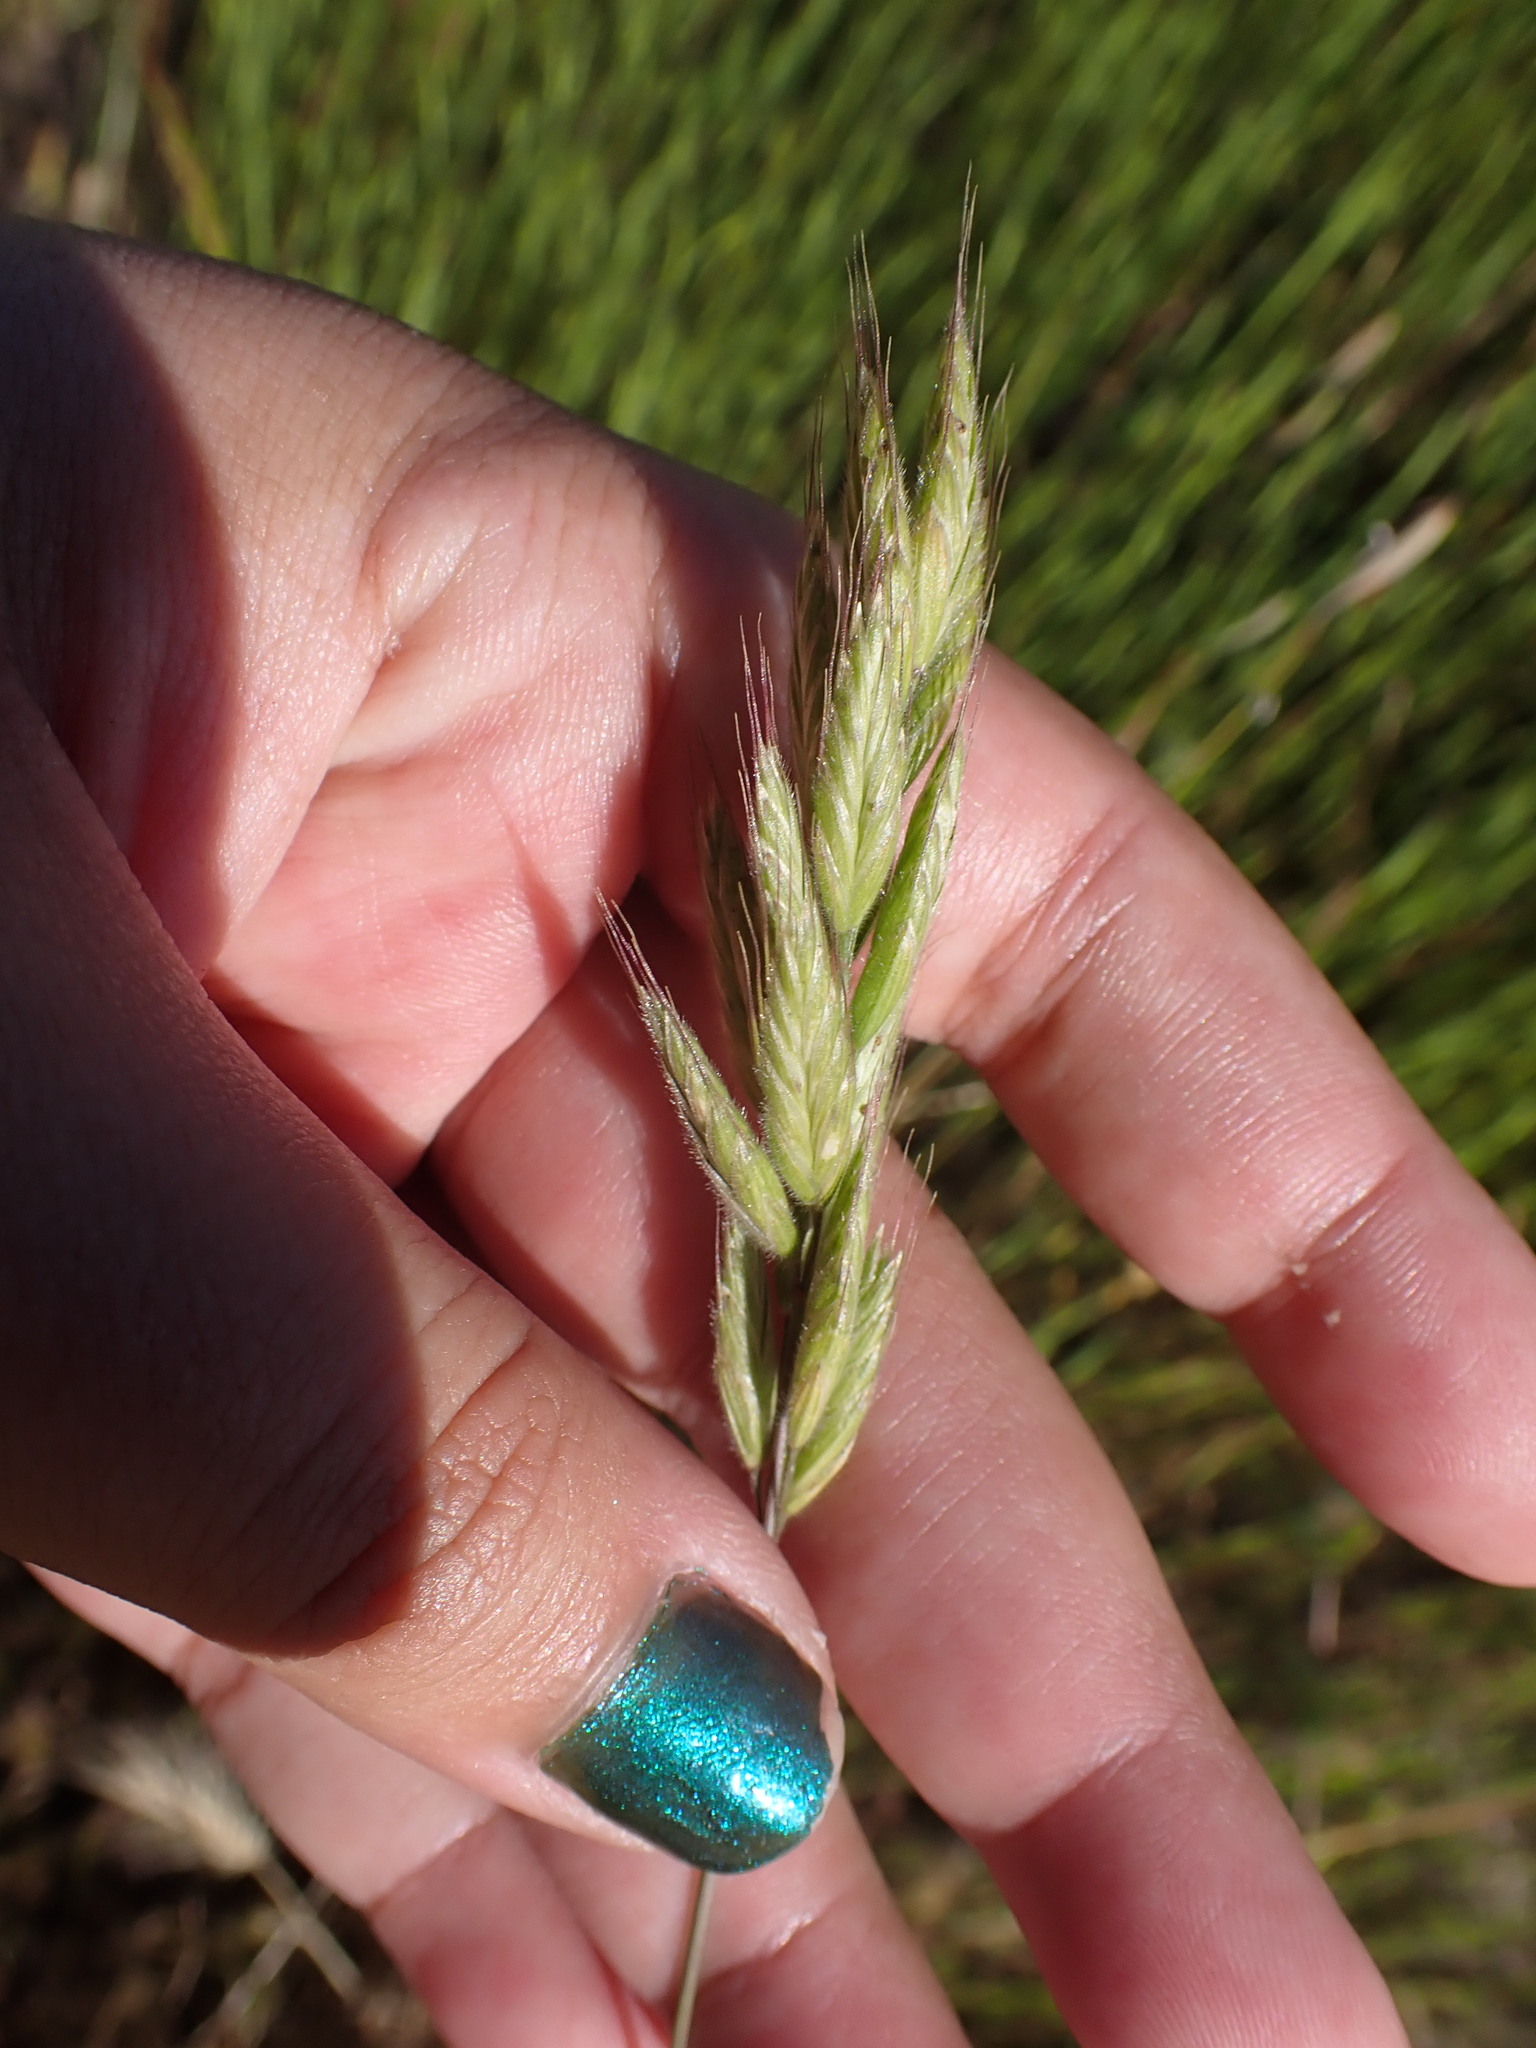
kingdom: Plantae
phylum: Tracheophyta
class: Liliopsida
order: Poales
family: Poaceae
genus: Bromus
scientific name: Bromus hordeaceus
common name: Soft brome
